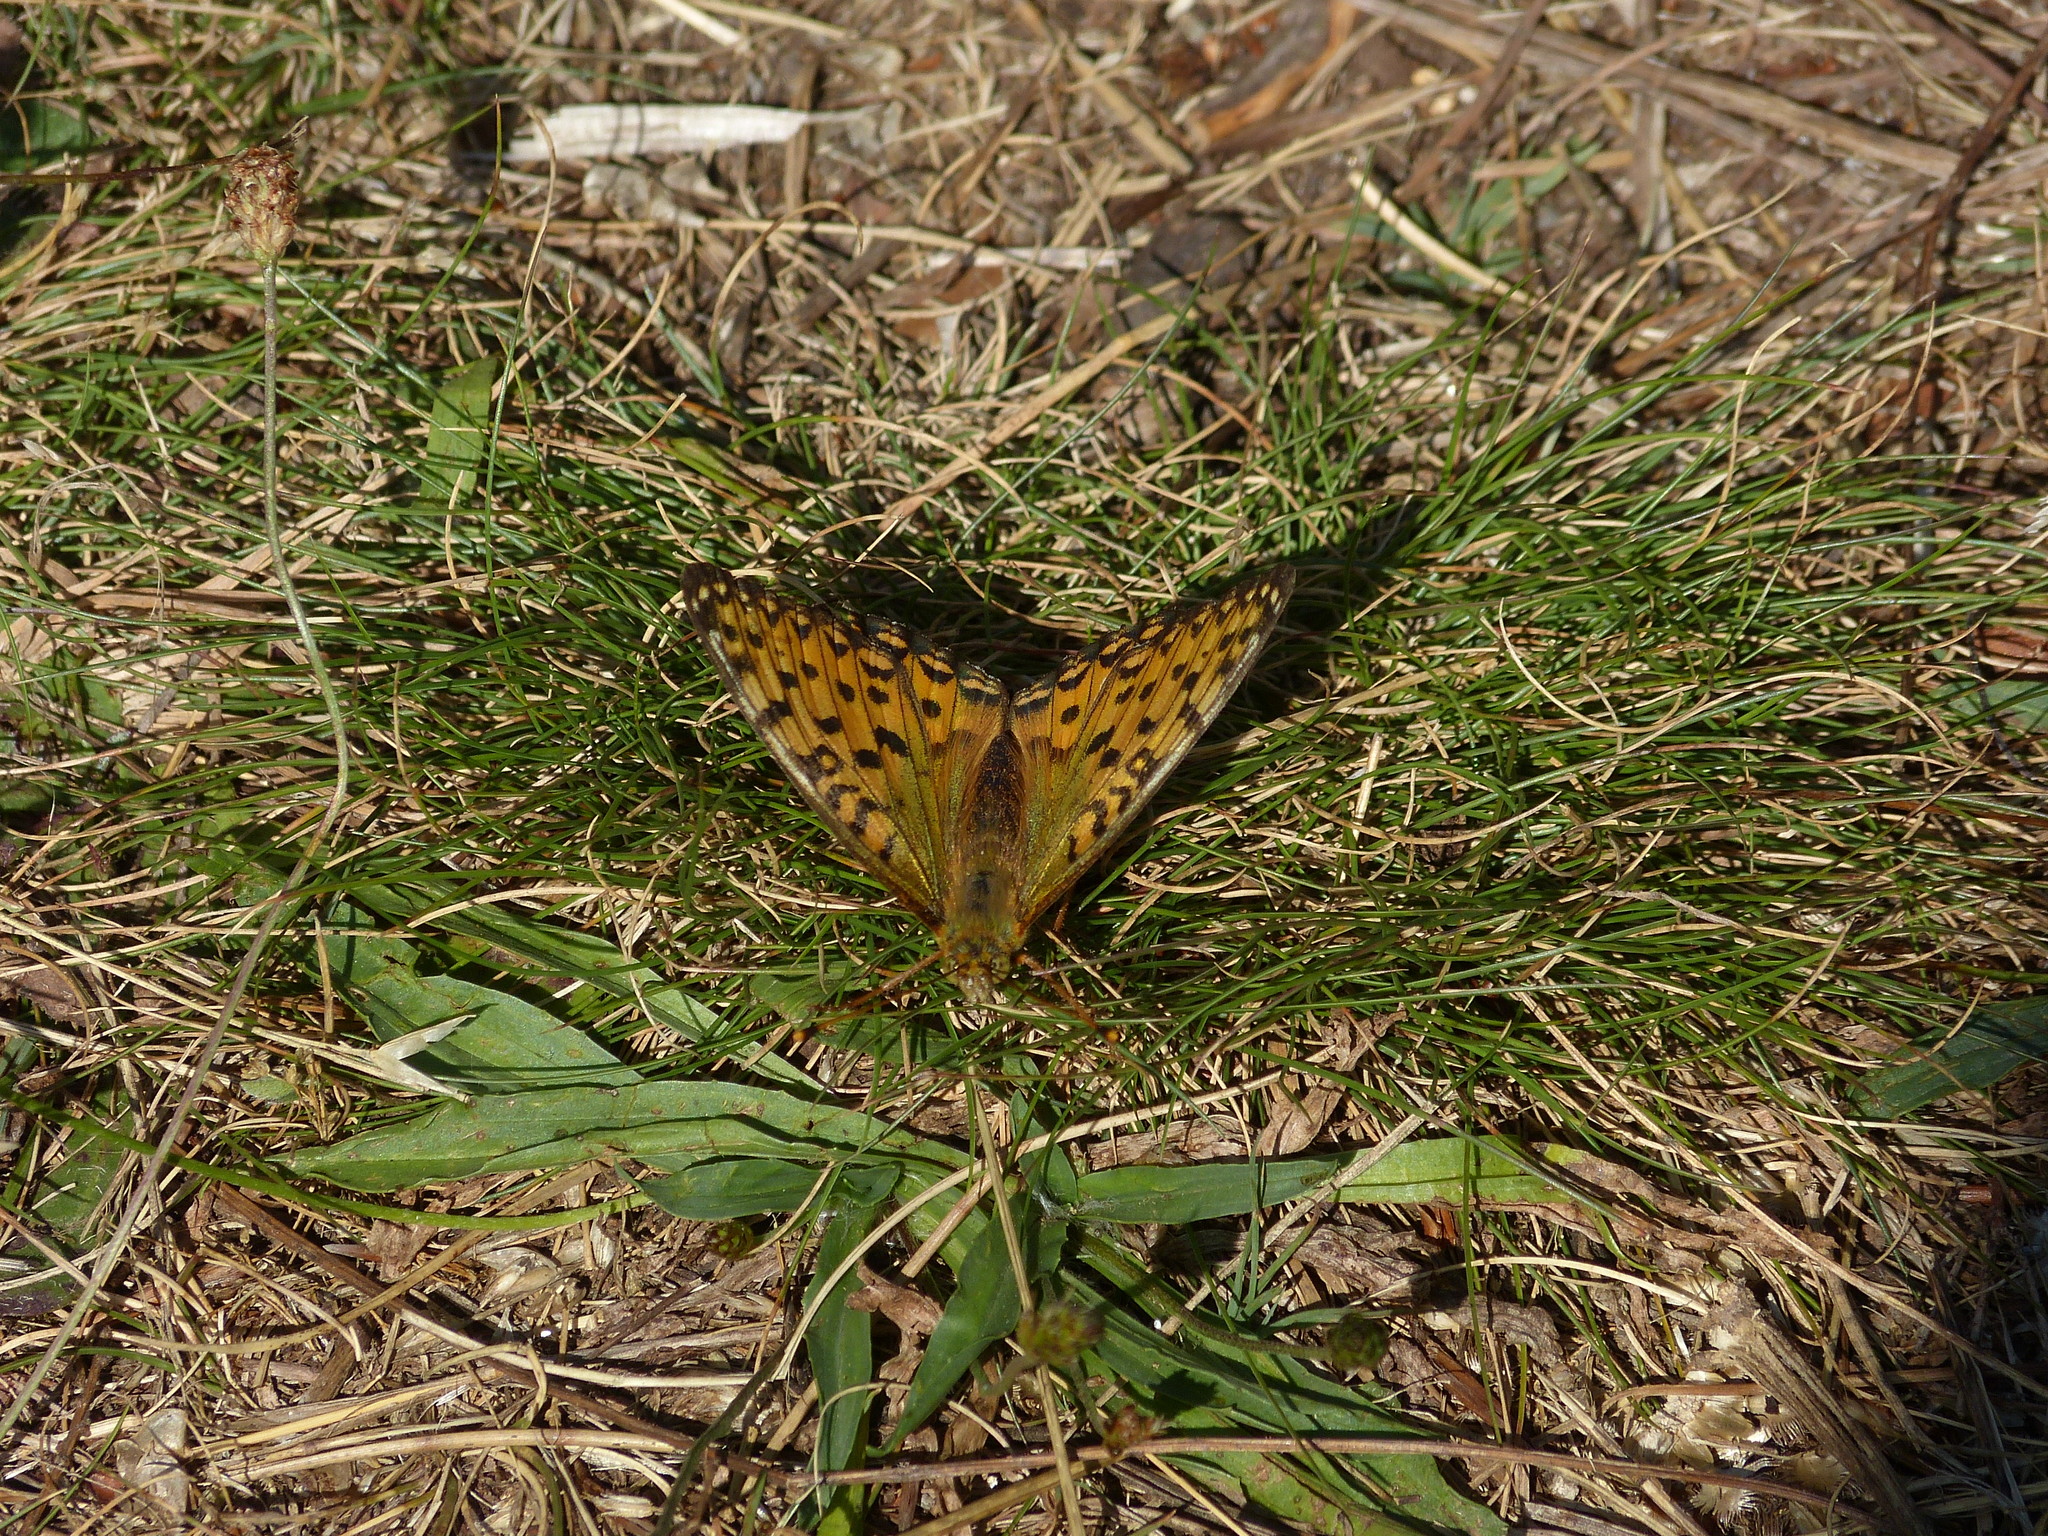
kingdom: Animalia
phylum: Arthropoda
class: Insecta
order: Lepidoptera
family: Nymphalidae
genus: Speyeria
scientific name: Speyeria aglaja
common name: Dark green fritillary
